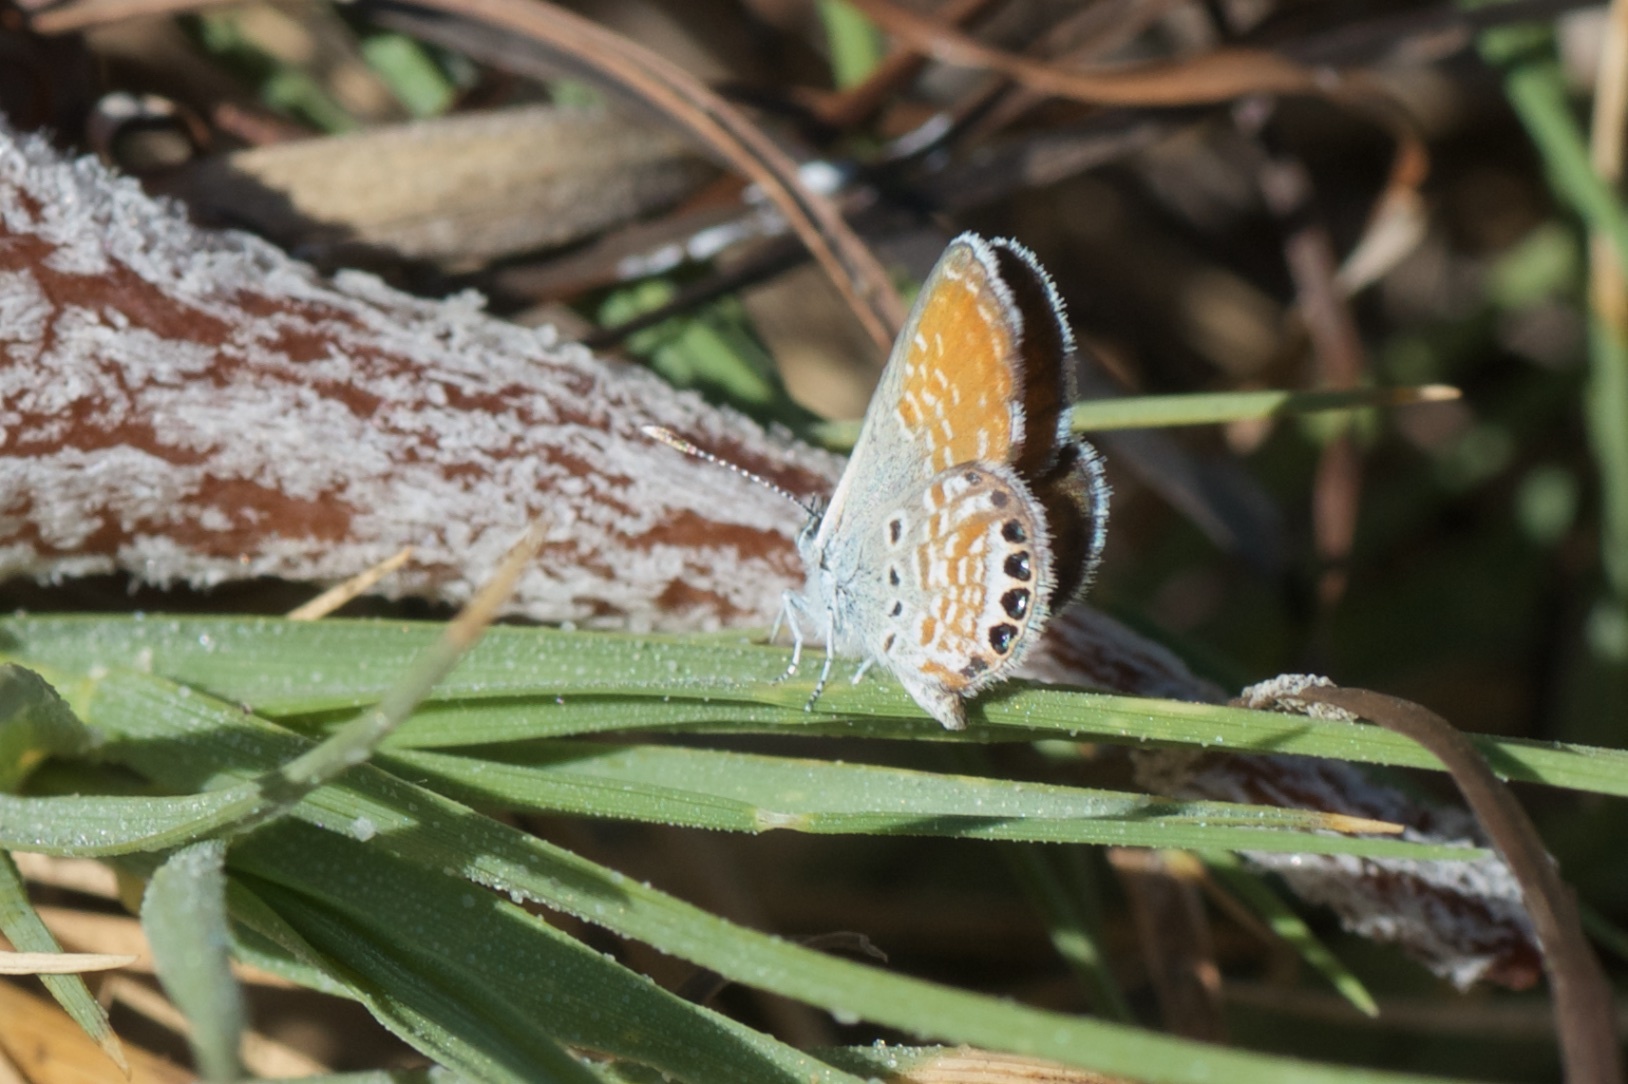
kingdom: Animalia
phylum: Arthropoda
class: Insecta
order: Lepidoptera
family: Lycaenidae
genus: Brephidium
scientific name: Brephidium exilis
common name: Pygmy blue
